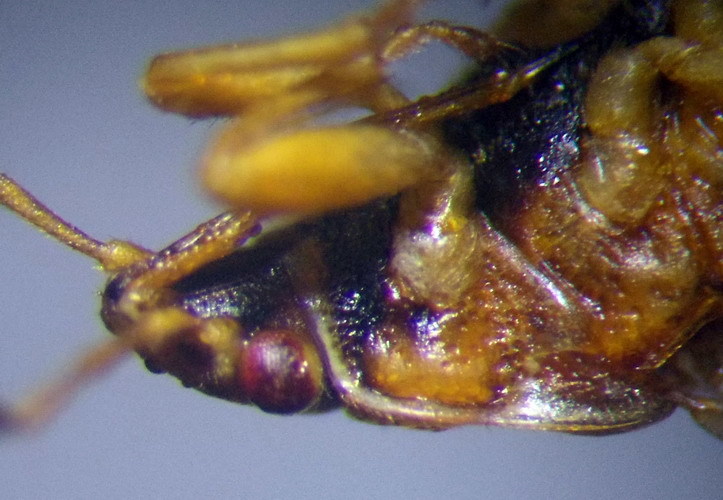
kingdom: Animalia
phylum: Arthropoda
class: Insecta
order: Hemiptera
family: Artheneidae
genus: Chilacis
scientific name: Chilacis typhae
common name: Cattail bug
